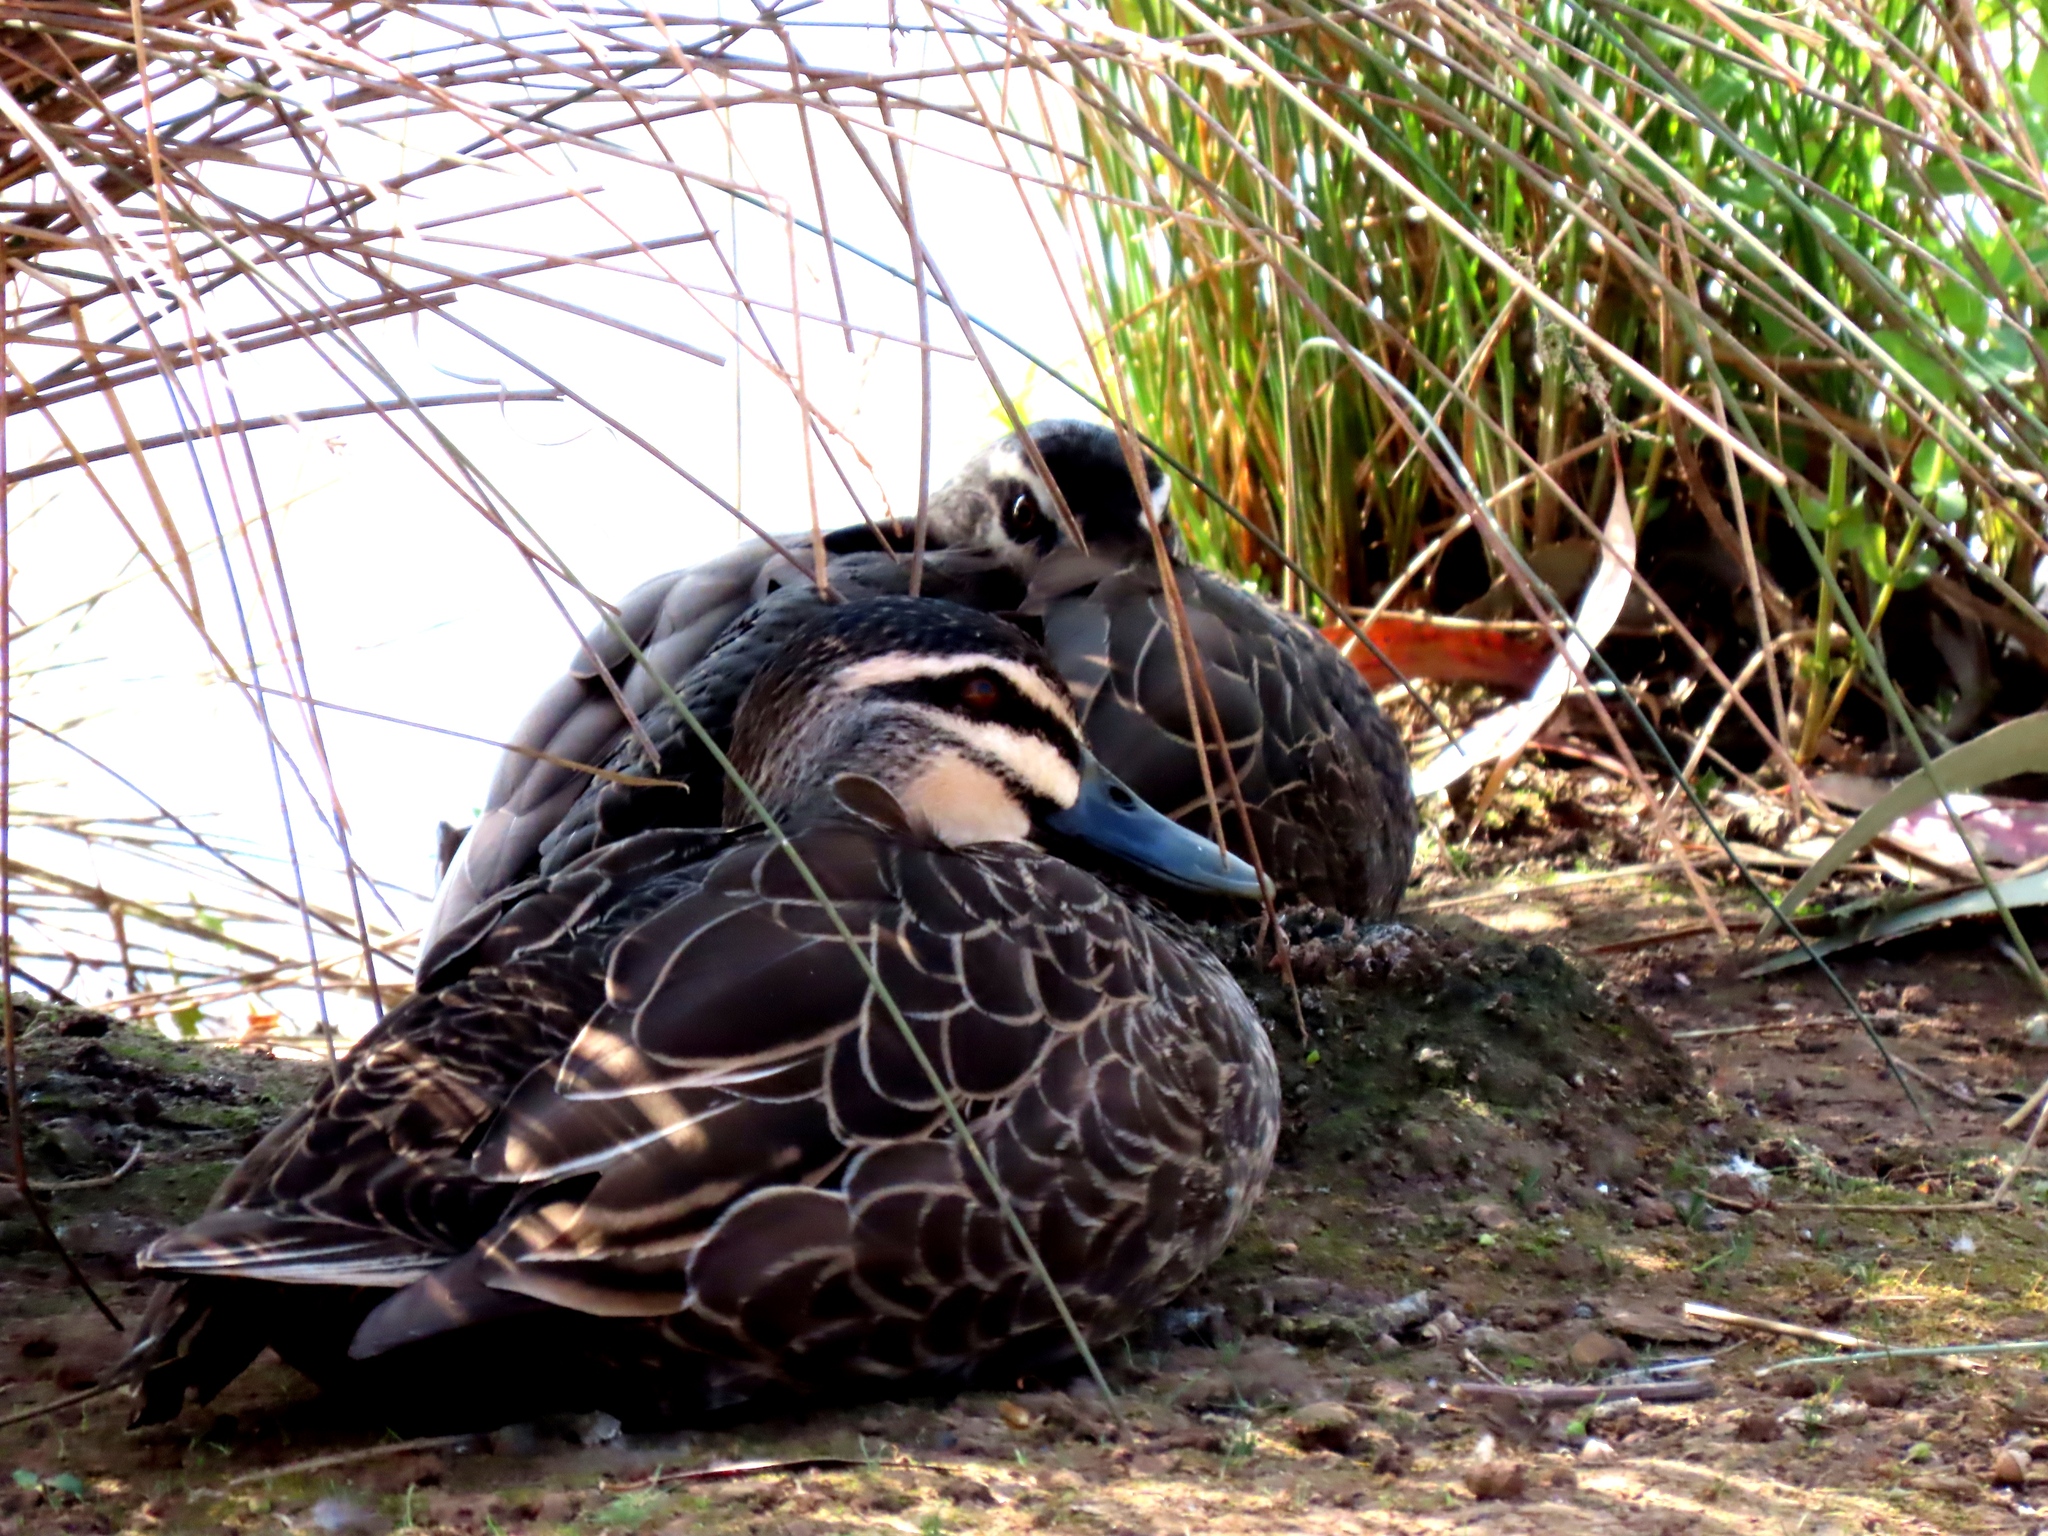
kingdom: Animalia
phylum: Chordata
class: Aves
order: Anseriformes
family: Anatidae
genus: Anas
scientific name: Anas superciliosa
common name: Pacific black duck
